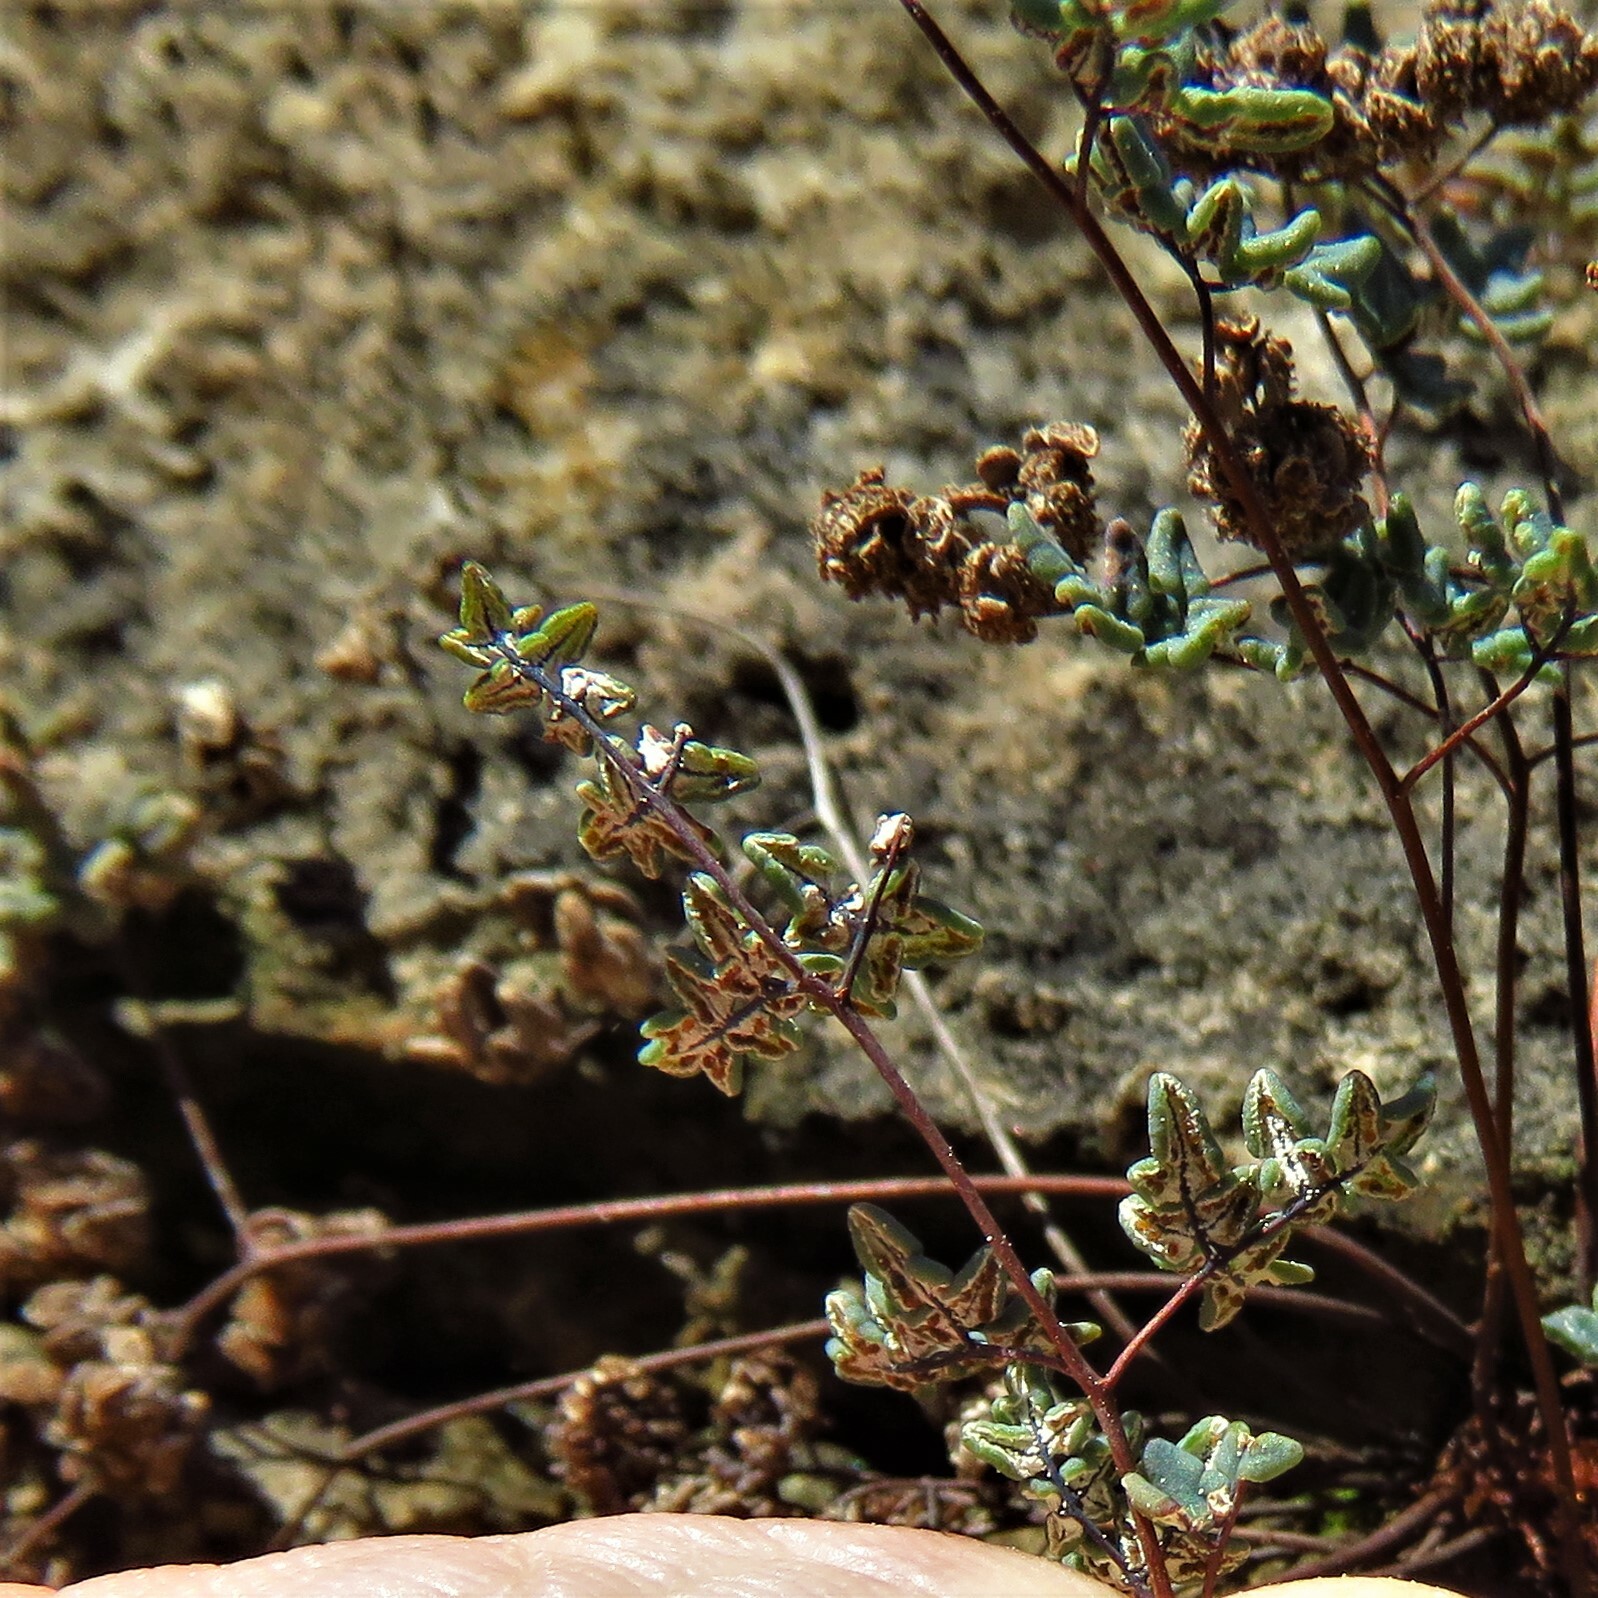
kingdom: Plantae
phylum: Tracheophyta
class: Polypodiopsida
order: Polypodiales
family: Pteridaceae
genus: Argyrochosma
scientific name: Argyrochosma dealbata
